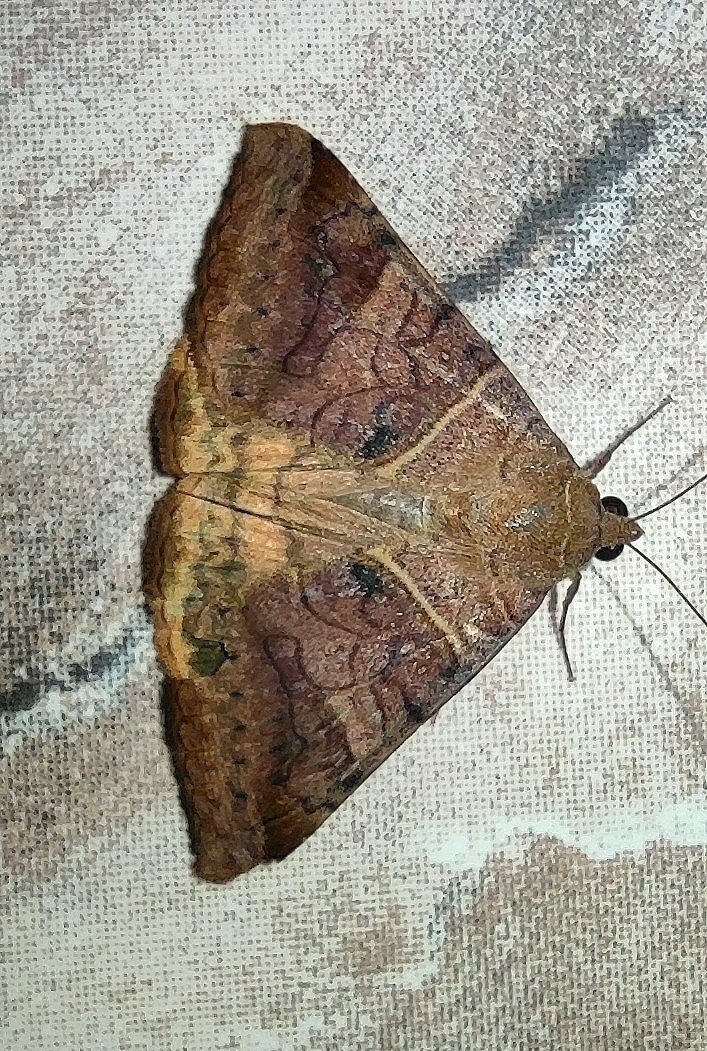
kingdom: Animalia
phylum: Arthropoda
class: Insecta
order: Lepidoptera
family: Erebidae
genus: Mocis
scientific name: Mocis undata
